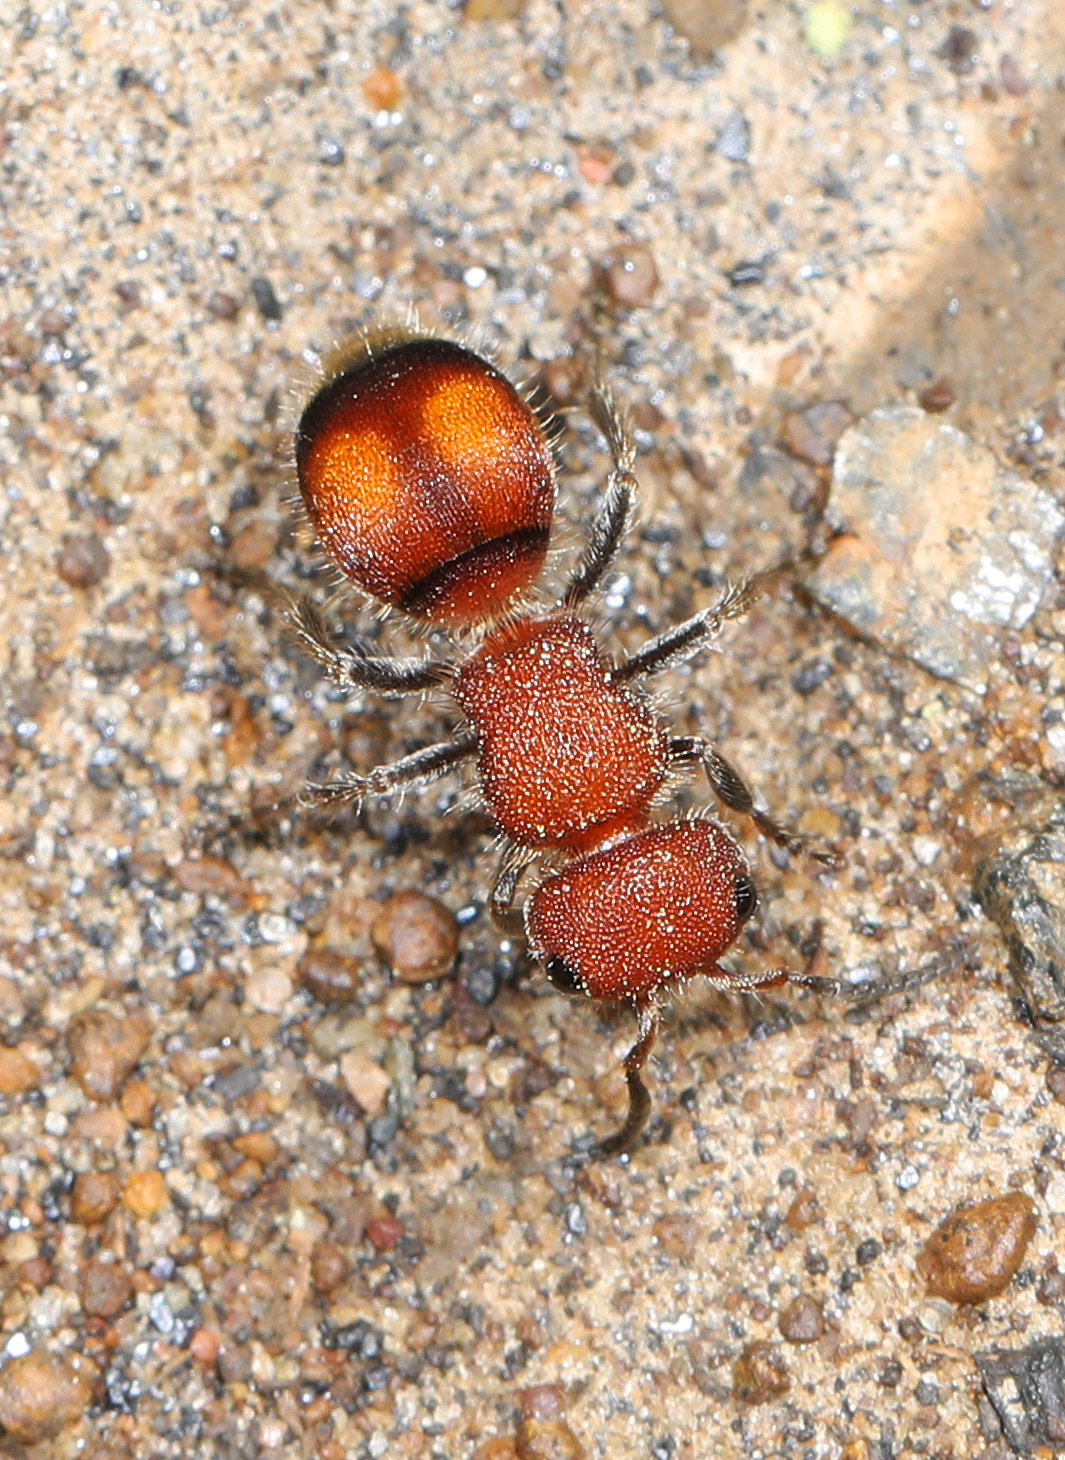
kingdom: Animalia
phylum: Arthropoda
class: Insecta
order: Hymenoptera
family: Mutillidae
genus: Pseudomethoca
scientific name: Pseudomethoca
